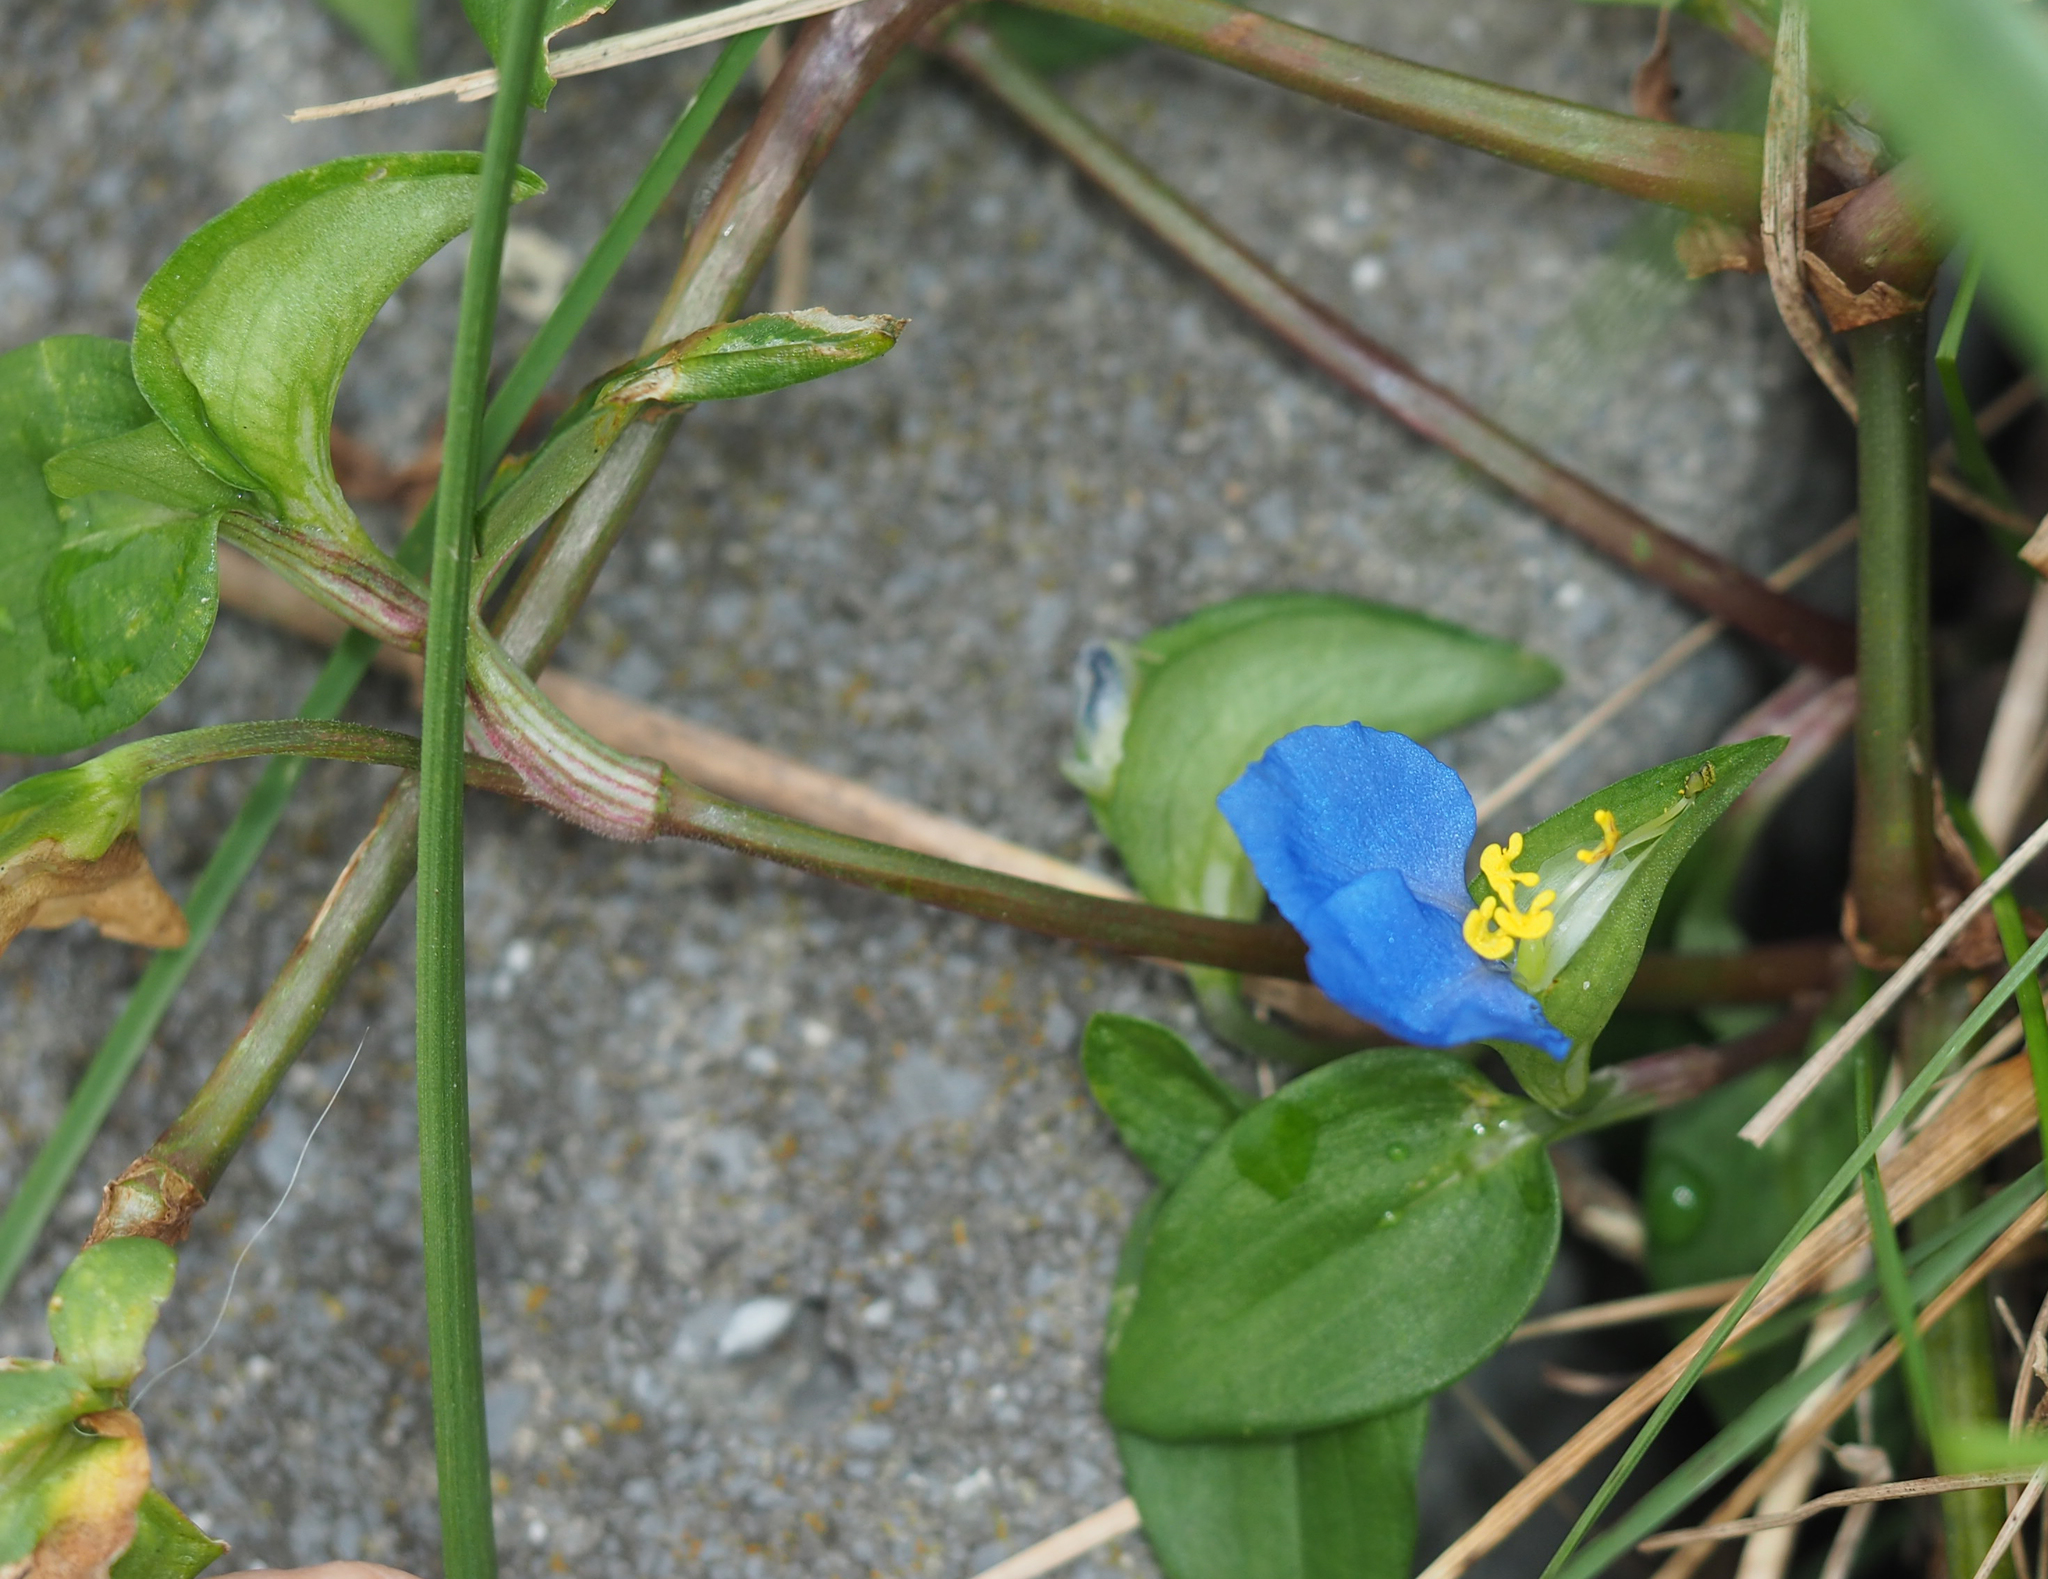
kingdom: Plantae
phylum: Tracheophyta
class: Liliopsida
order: Commelinales
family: Commelinaceae
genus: Commelina
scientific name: Commelina communis
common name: Asiatic dayflower
